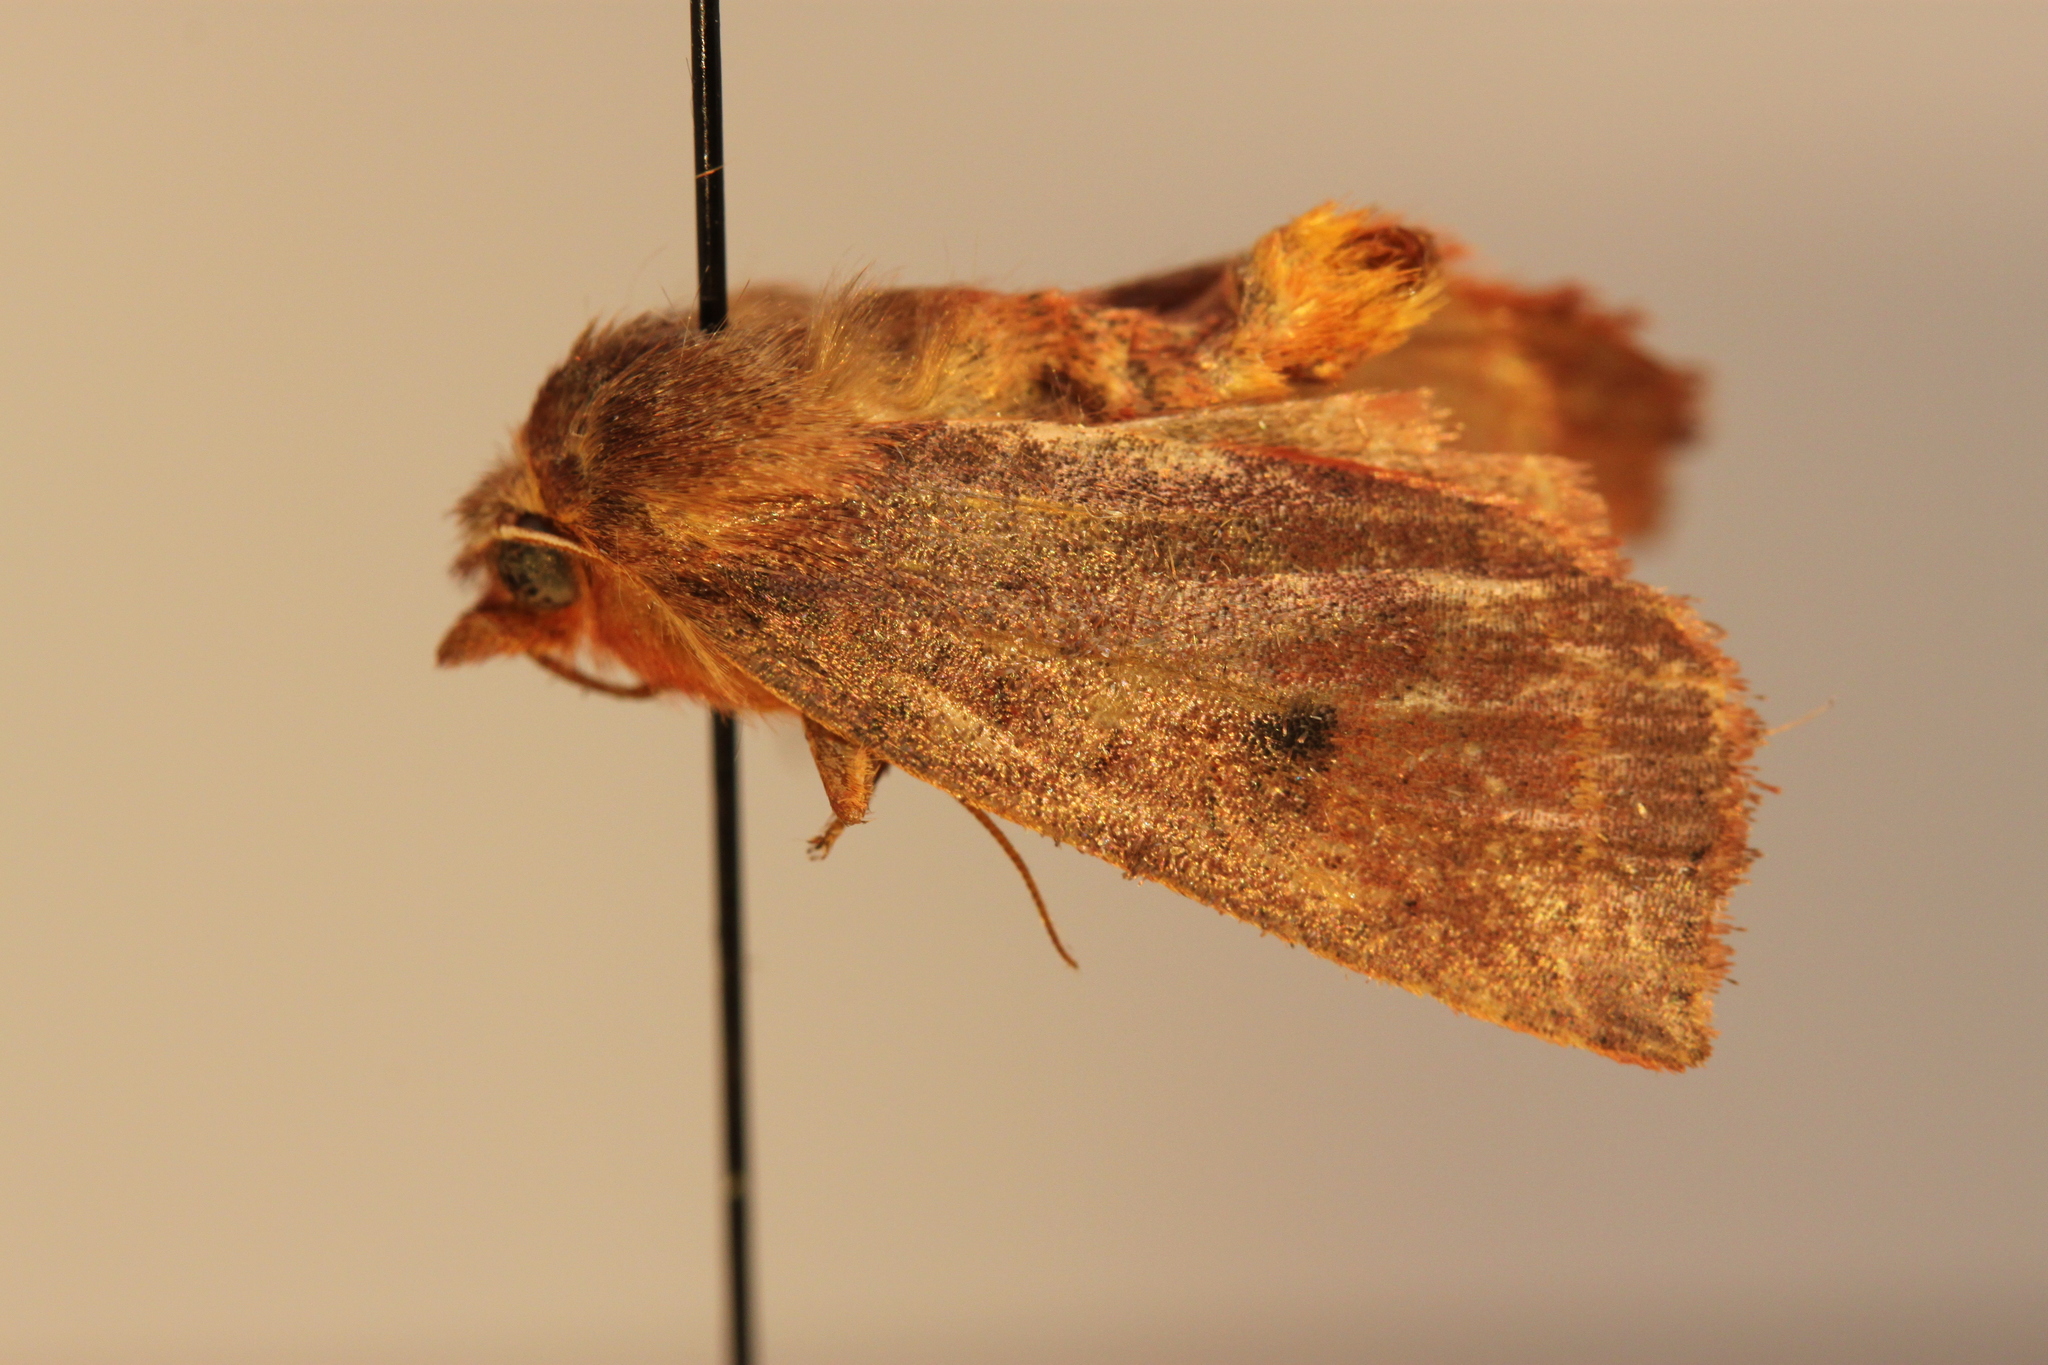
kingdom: Animalia
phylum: Arthropoda
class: Insecta
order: Lepidoptera
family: Noctuidae
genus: Epiglaea
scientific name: Epiglaea apiata
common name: Pointed sallow
